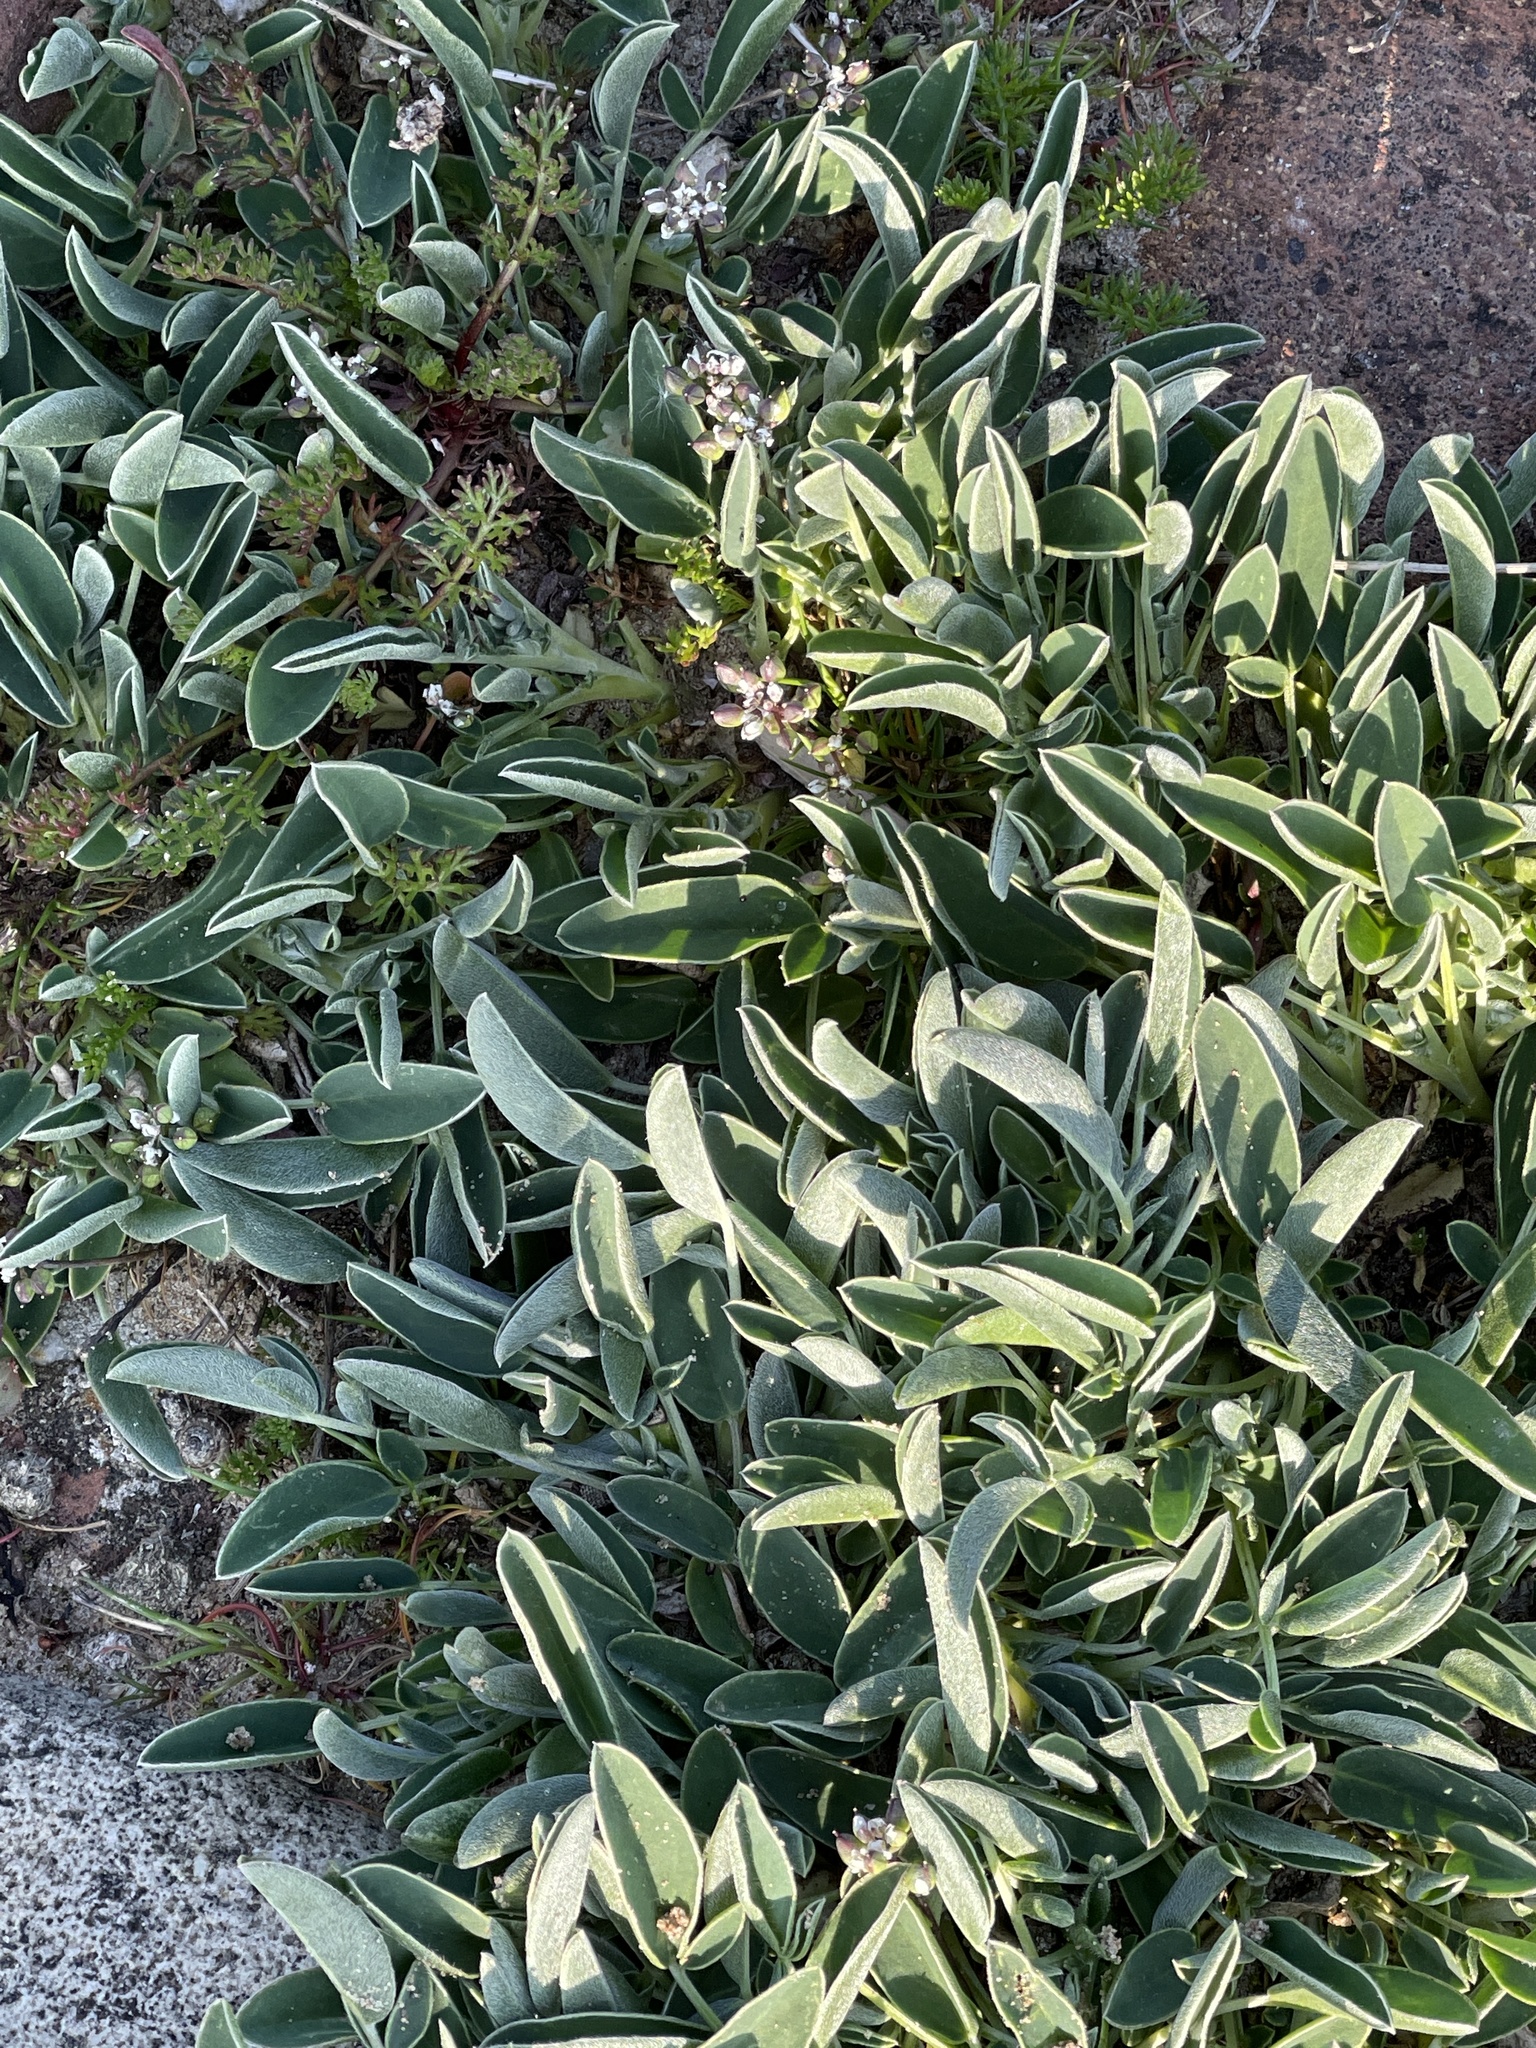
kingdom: Plantae
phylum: Tracheophyta
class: Magnoliopsida
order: Fabales
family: Fabaceae
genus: Anthyllis
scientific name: Anthyllis vulneraria
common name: Kidney vetch
